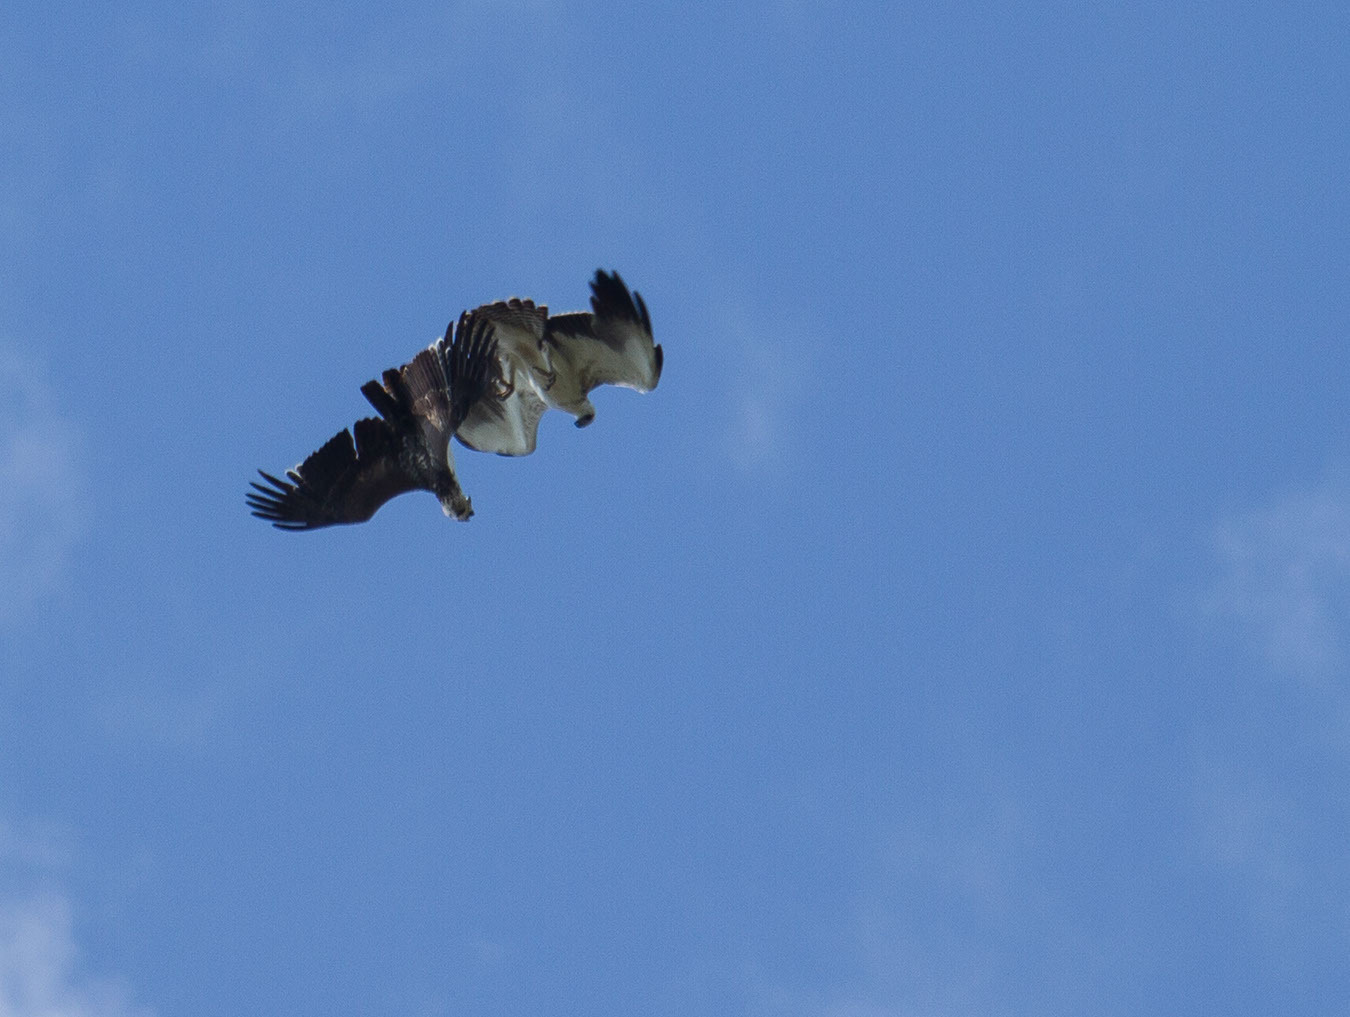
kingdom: Animalia
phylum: Chordata
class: Aves
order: Accipitriformes
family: Accipitridae
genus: Polemaetus
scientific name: Polemaetus bellicosus
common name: Martial eagle
